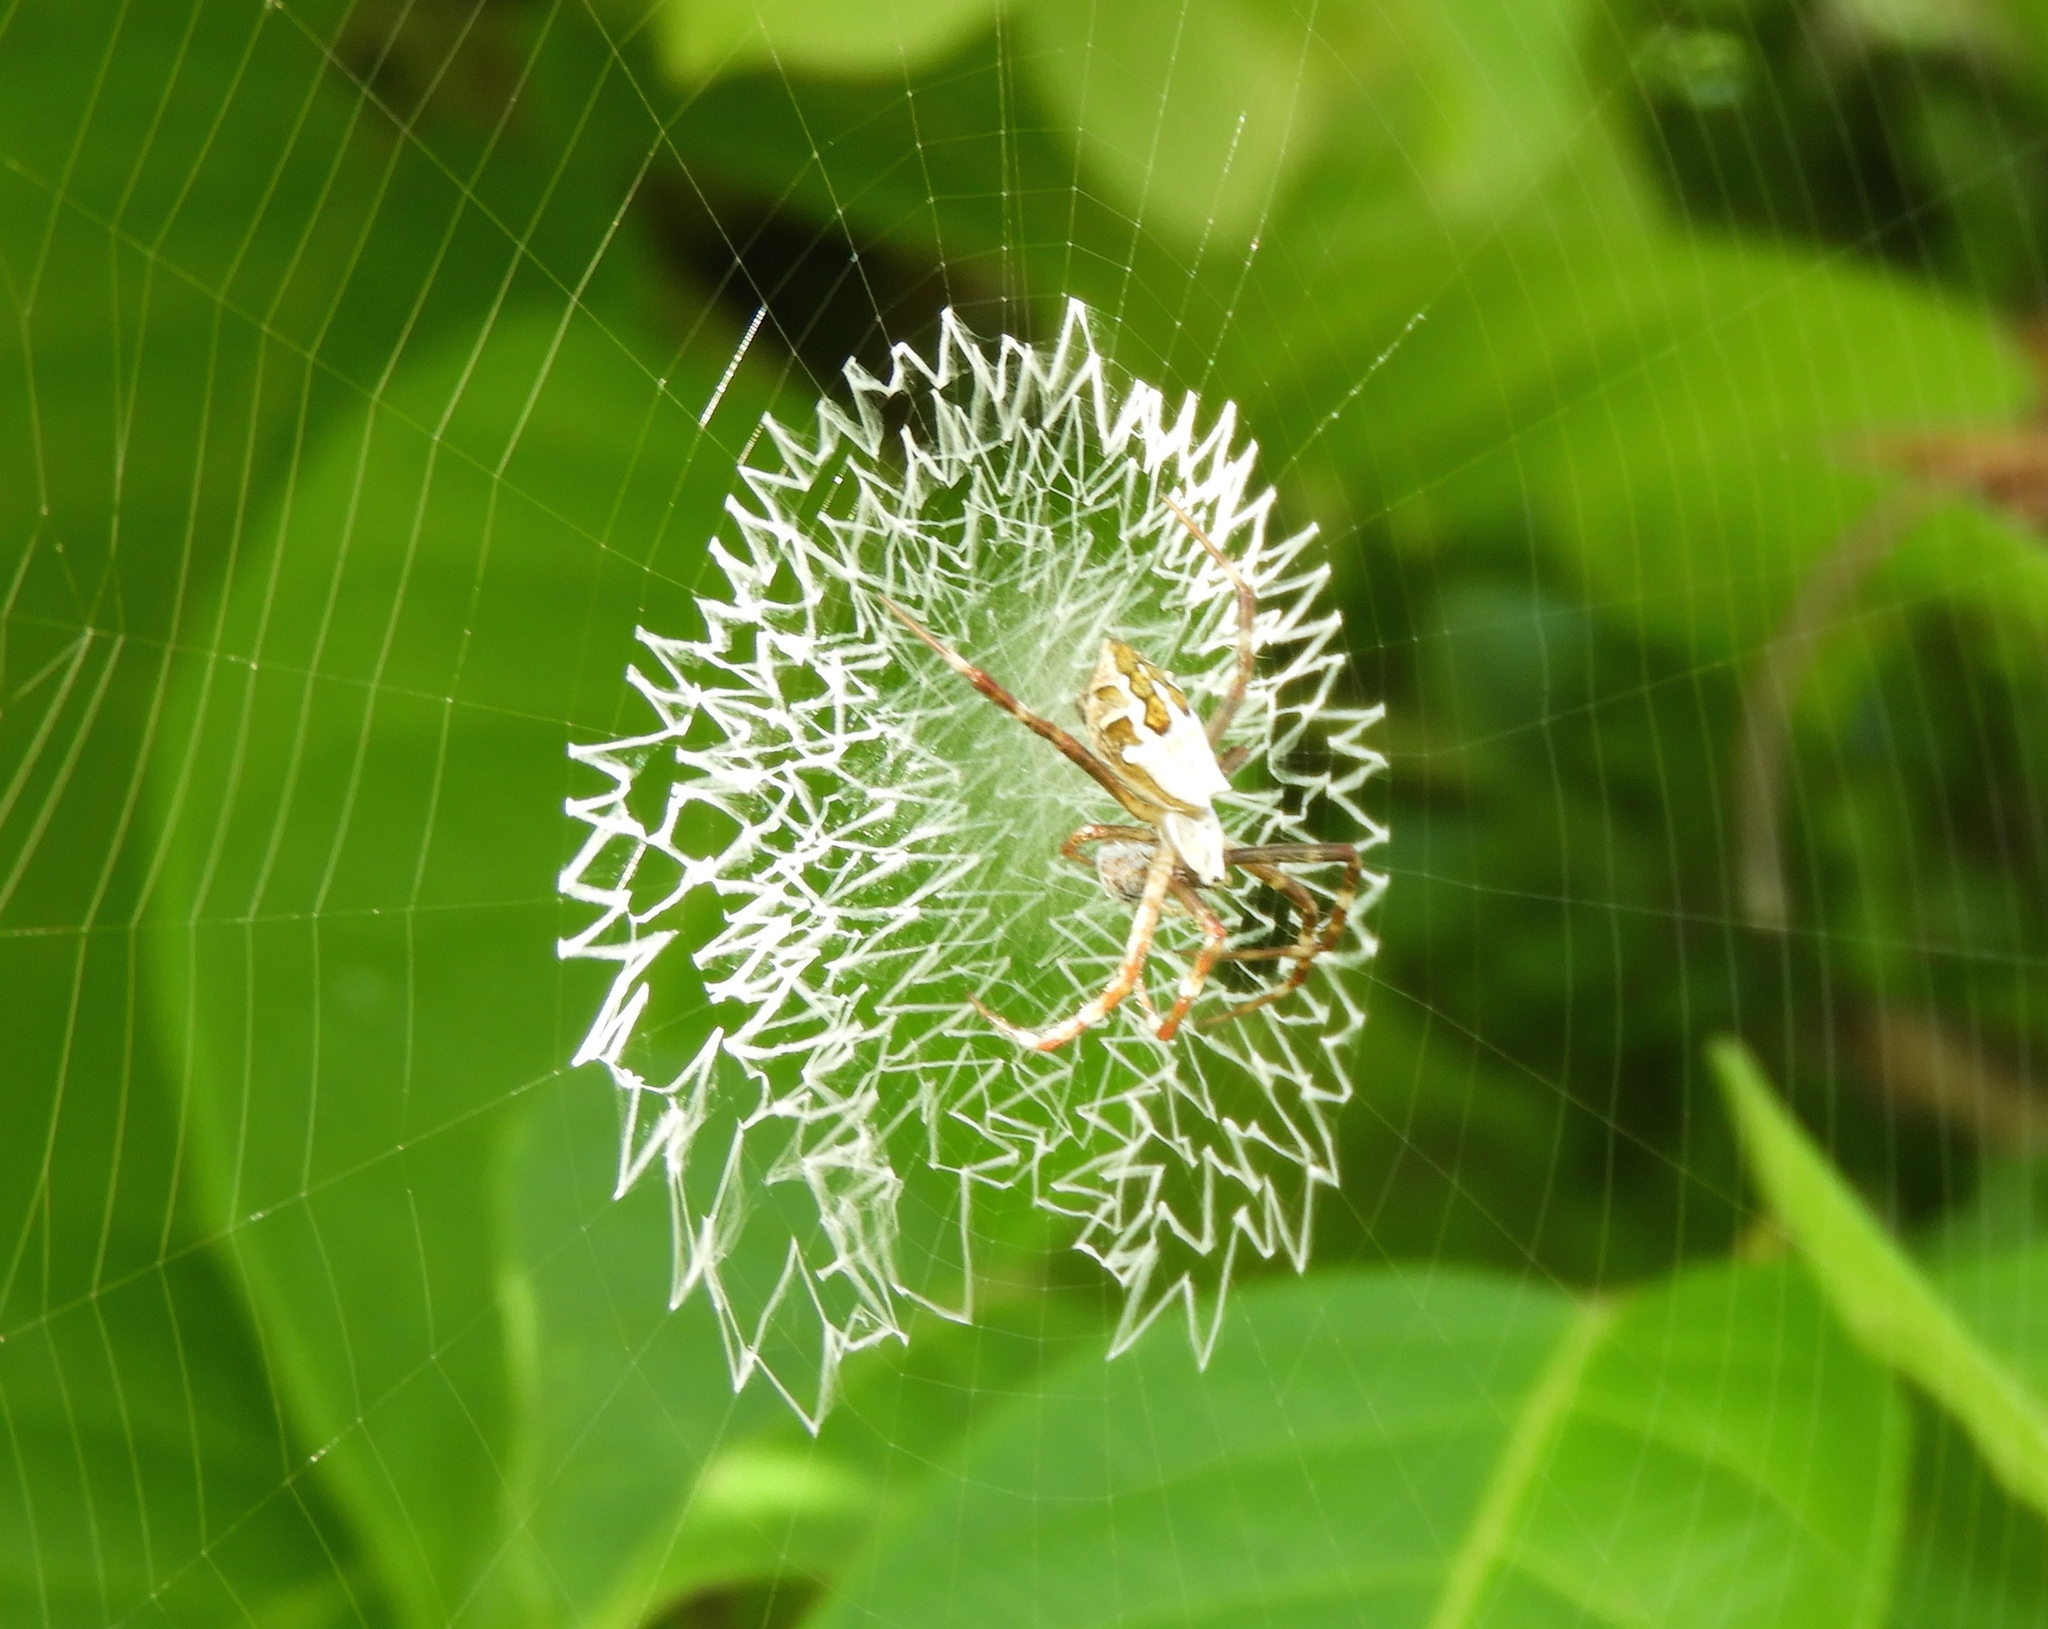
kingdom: Animalia
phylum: Arthropoda
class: Arachnida
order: Araneae
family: Araneidae
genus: Argiope
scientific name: Argiope
